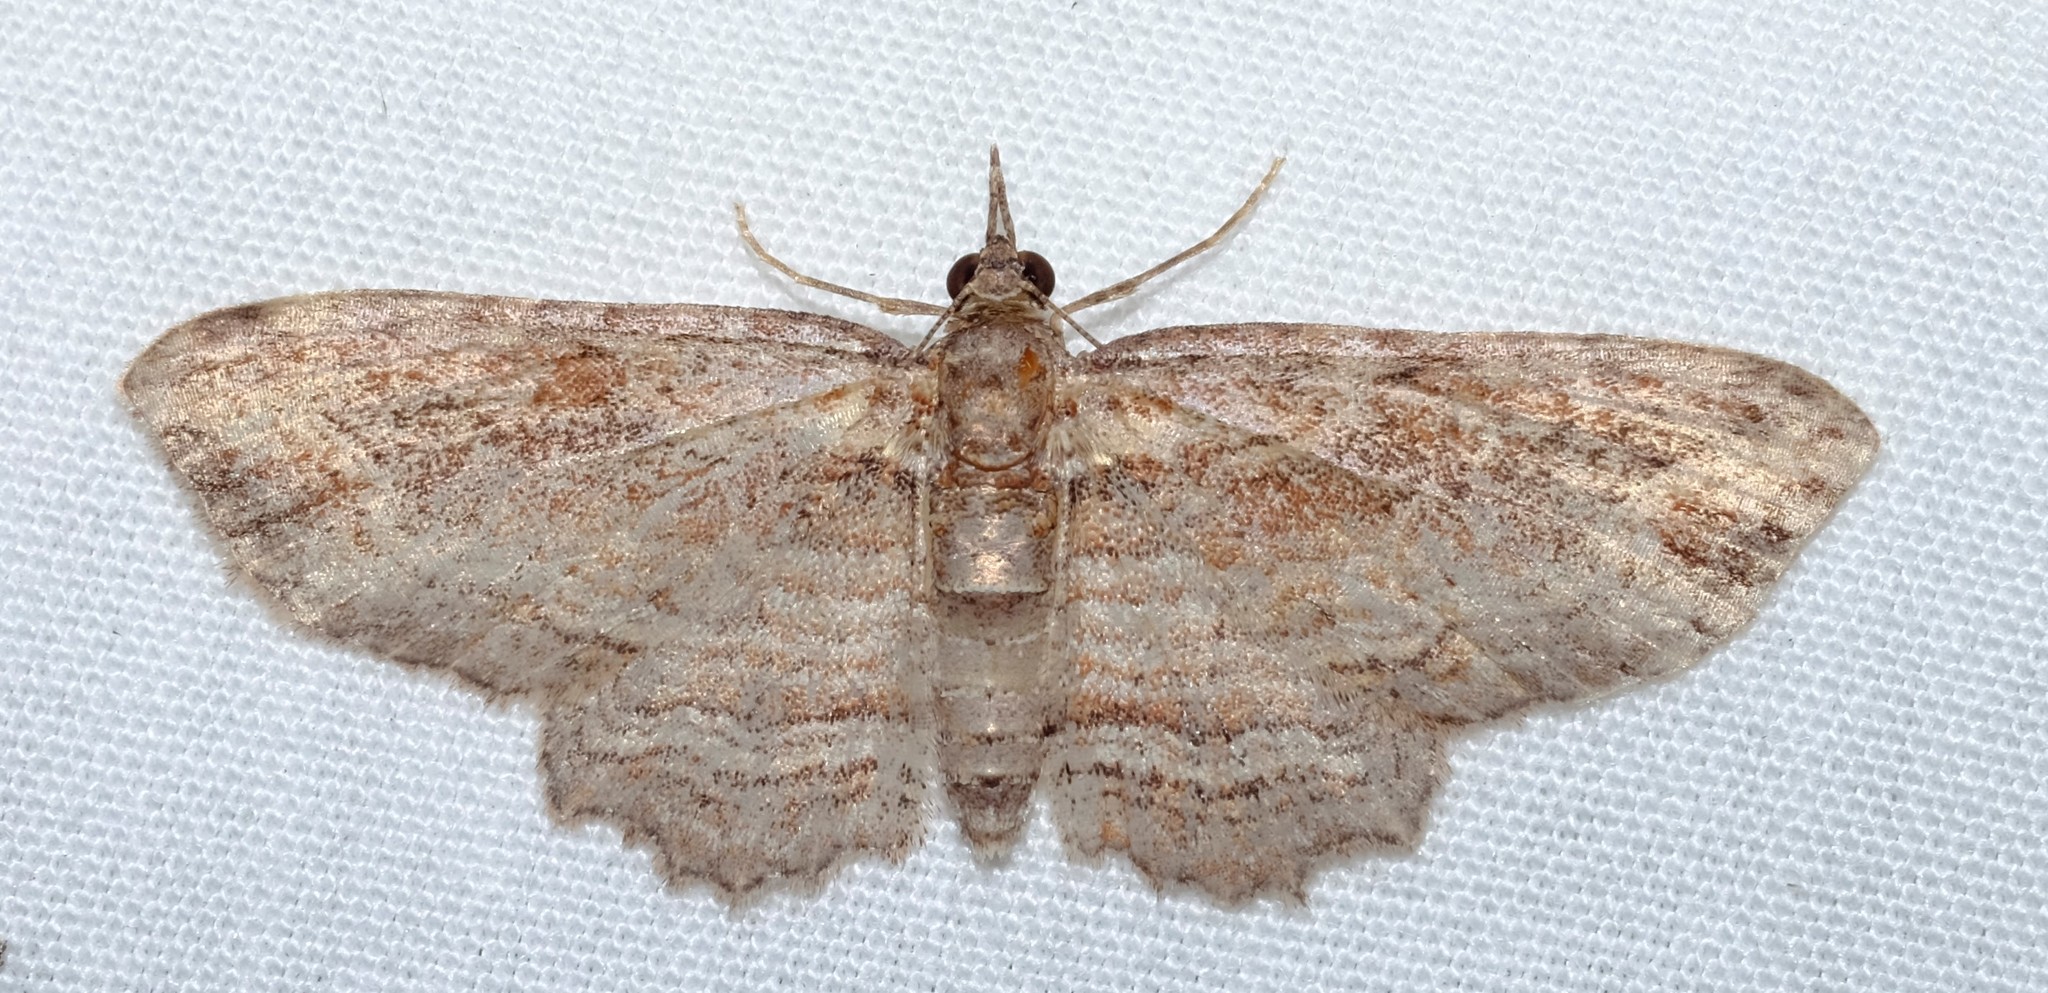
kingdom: Animalia
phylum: Arthropoda
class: Insecta
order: Lepidoptera
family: Geometridae
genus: Chloroclystis
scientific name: Chloroclystis filata
